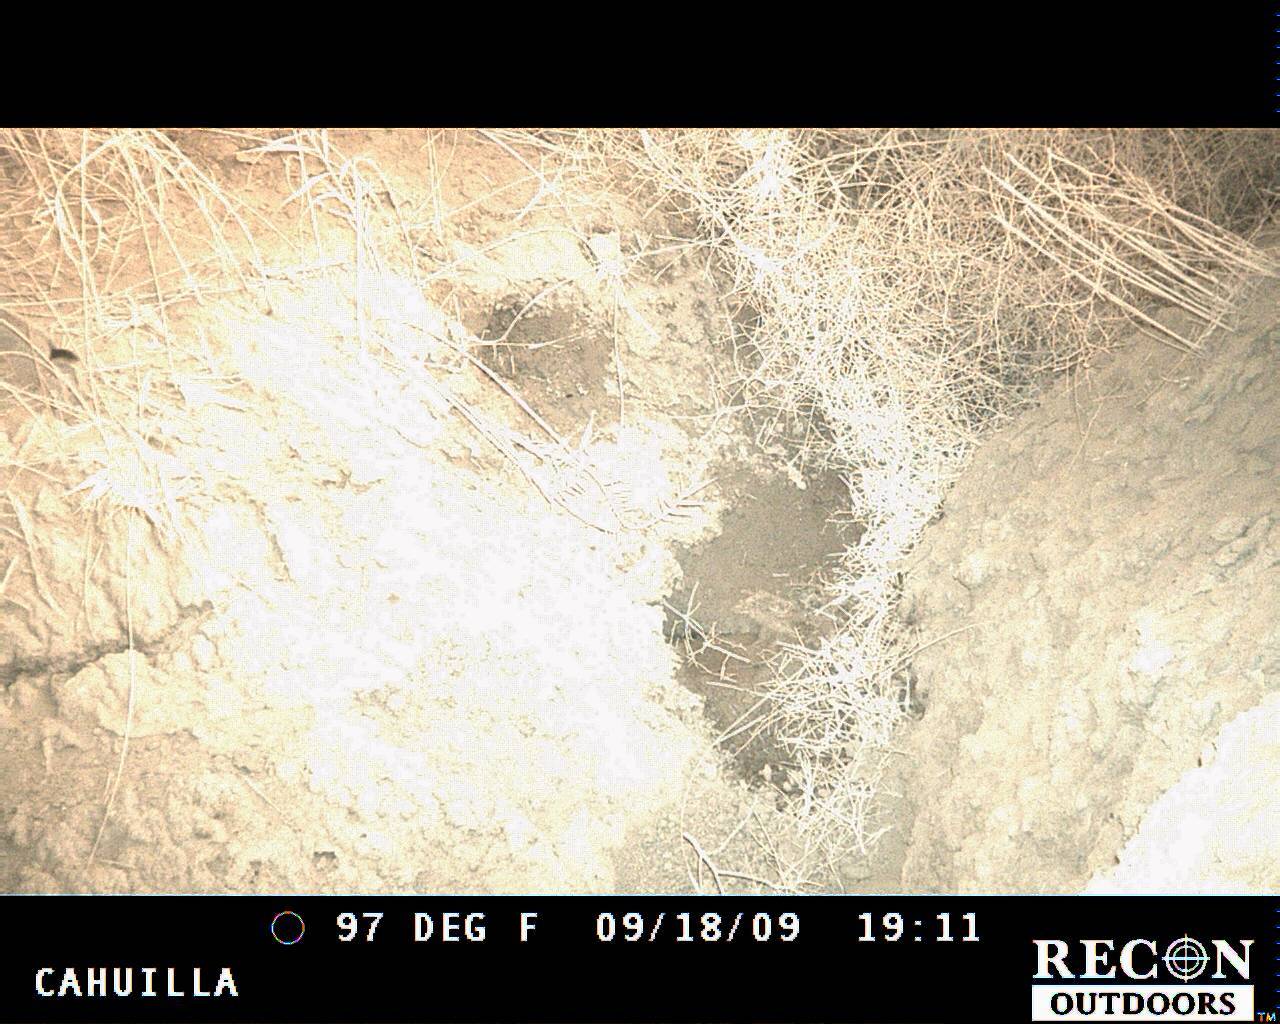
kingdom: Animalia
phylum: Chordata
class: Mammalia
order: Lagomorpha
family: Leporidae
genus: Lepus
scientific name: Lepus californicus
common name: Black-tailed jackrabbit
